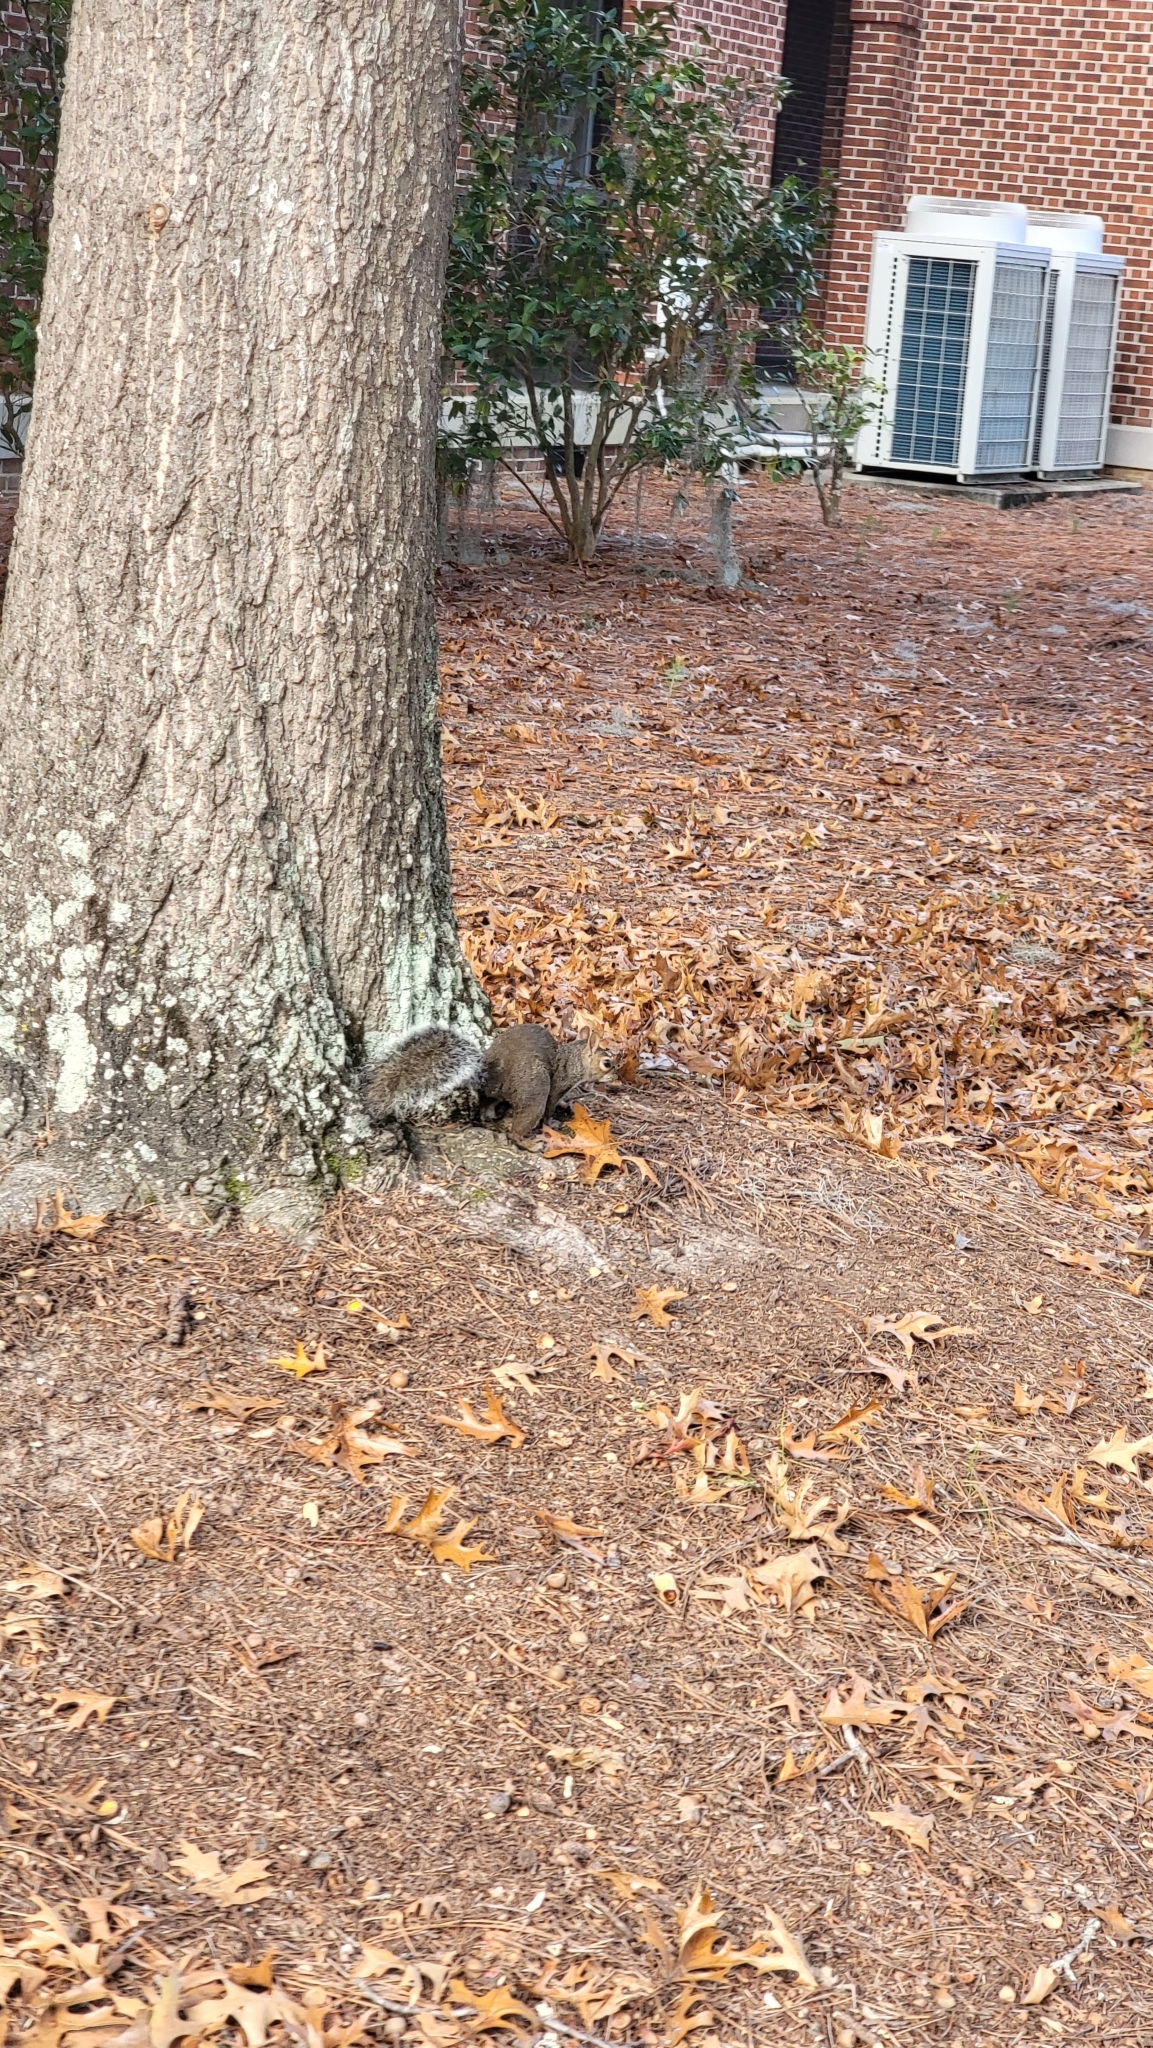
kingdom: Animalia
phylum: Chordata
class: Mammalia
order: Rodentia
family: Sciuridae
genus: Sciurus
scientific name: Sciurus carolinensis
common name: Eastern gray squirrel
